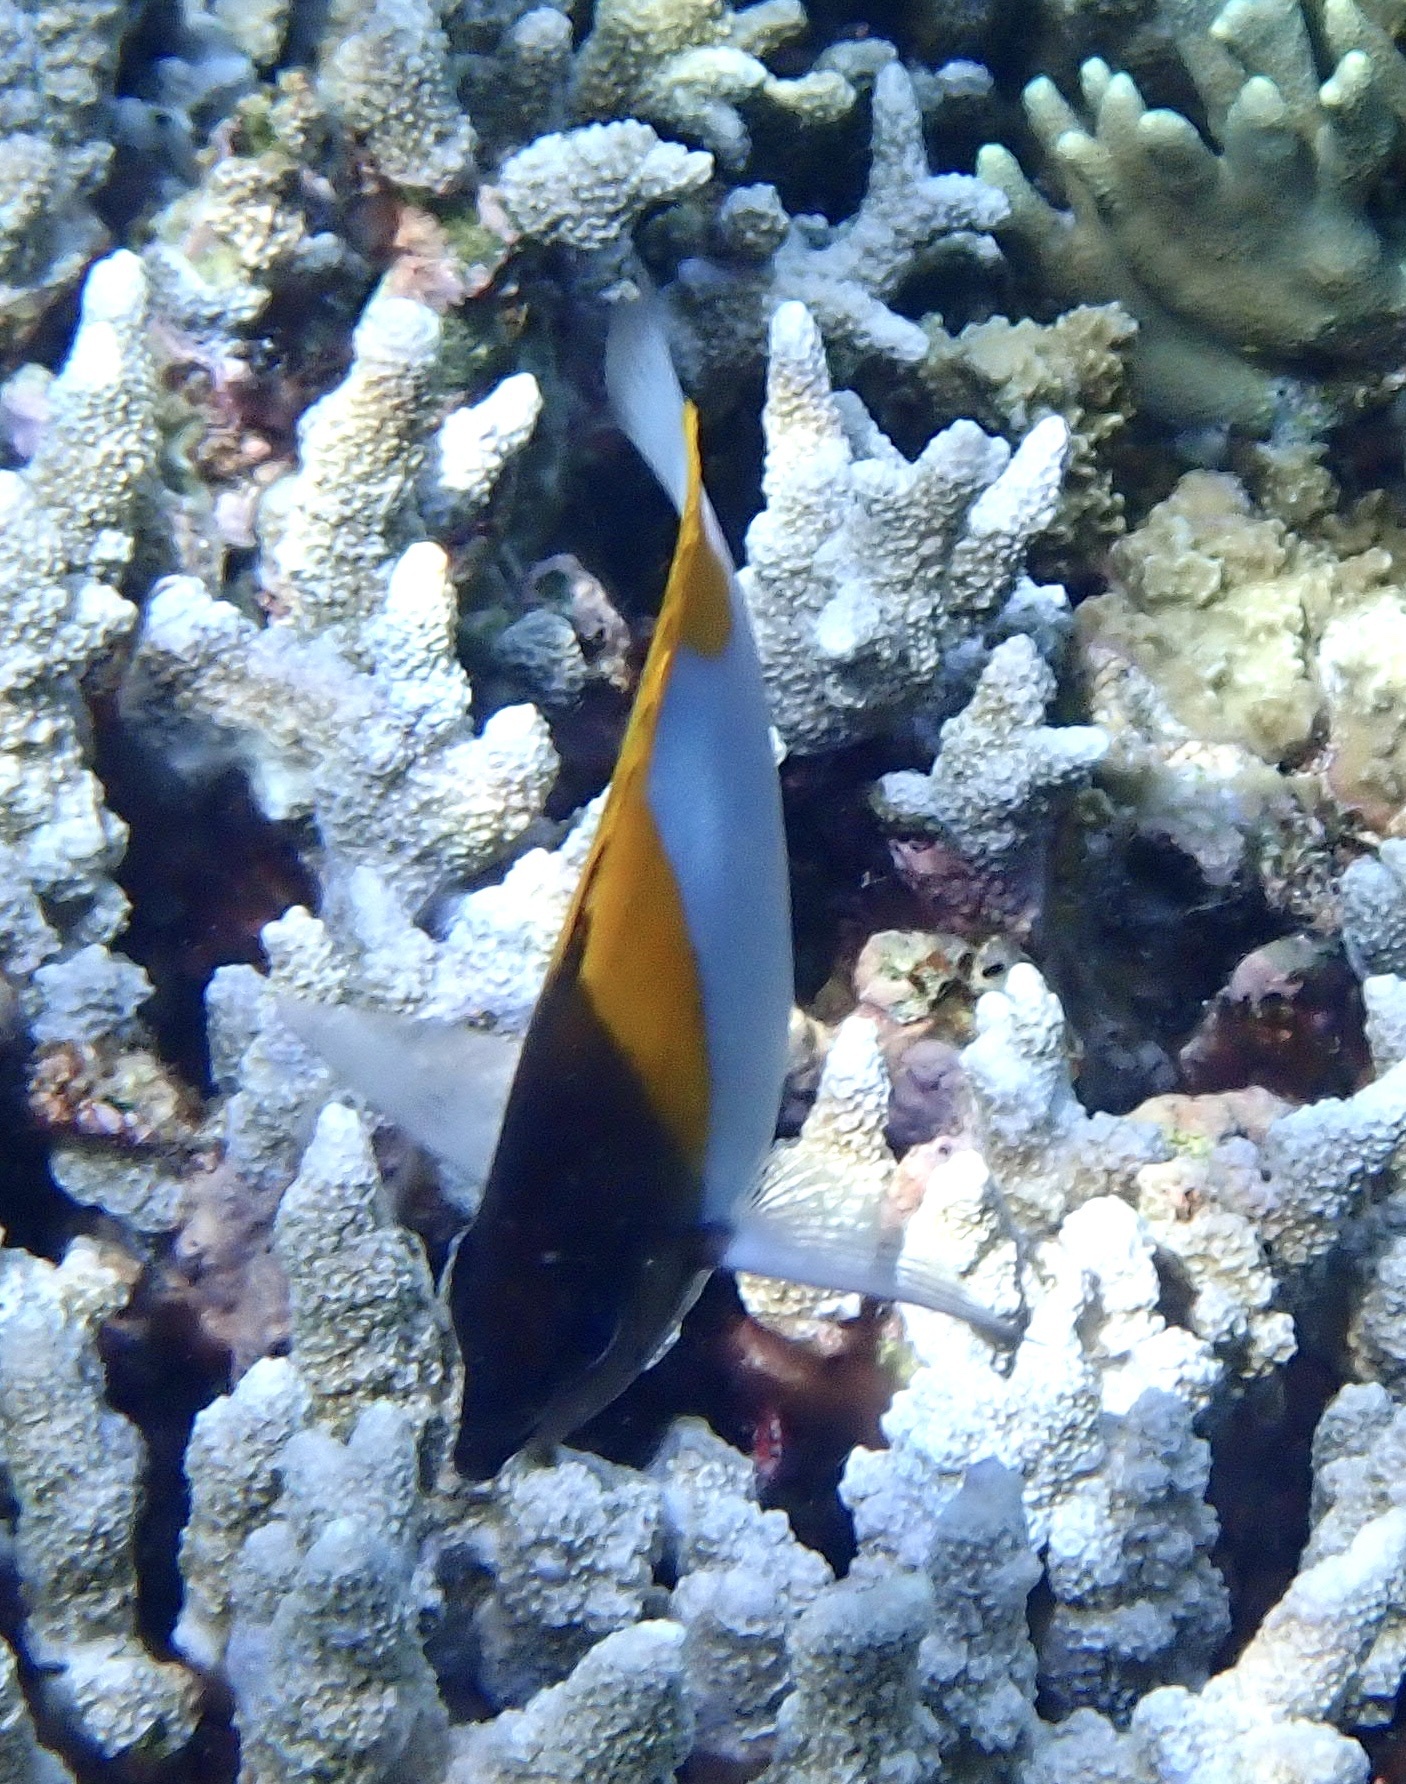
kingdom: Animalia
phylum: Chordata
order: Perciformes
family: Chaetodontidae
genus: Hemitaurichthys
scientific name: Hemitaurichthys polylepis
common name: Brushytoothed butterflyfish
